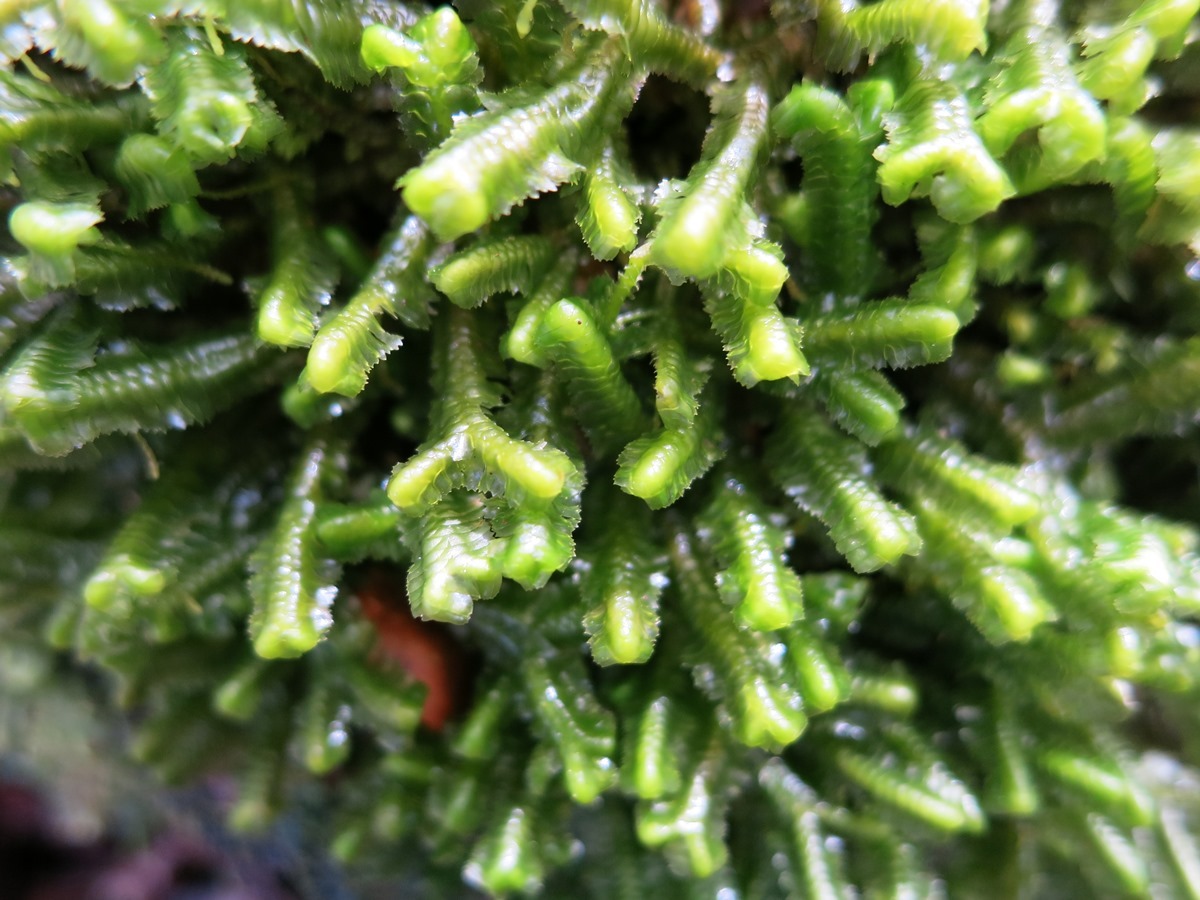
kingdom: Plantae
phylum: Marchantiophyta
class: Jungermanniopsida
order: Jungermanniales
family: Lepidoziaceae
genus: Bazzania
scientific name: Bazzania trilobata
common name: Three-lobed whipwort
